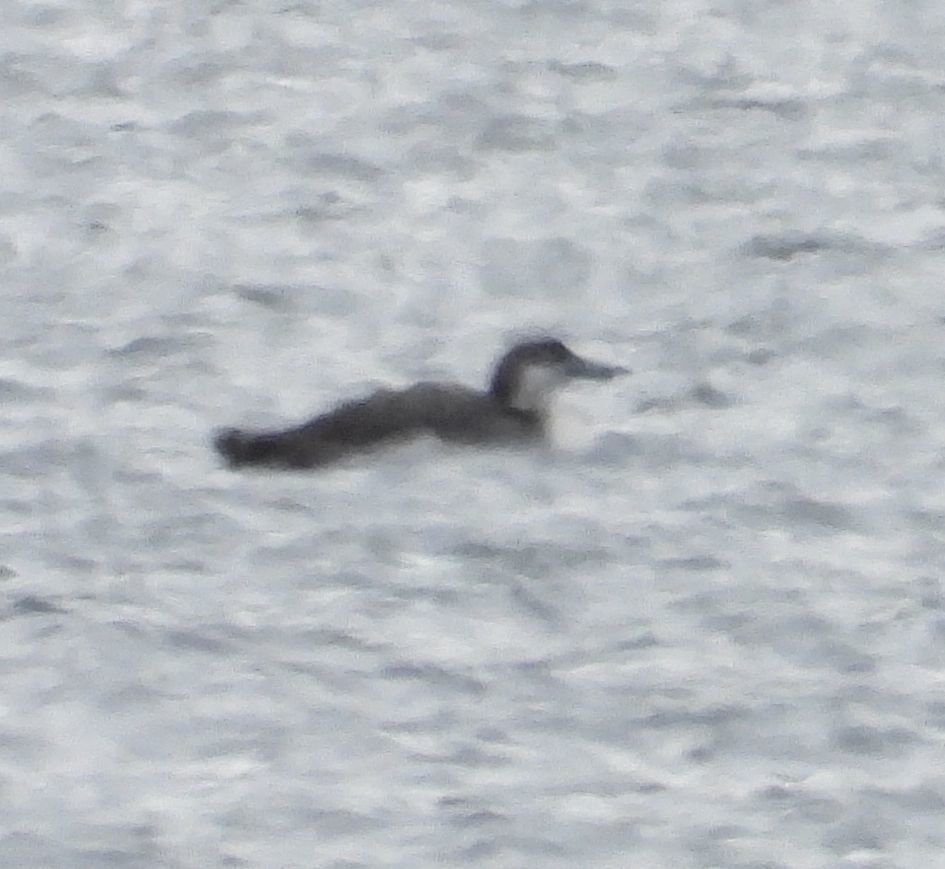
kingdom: Animalia
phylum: Chordata
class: Aves
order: Gaviiformes
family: Gaviidae
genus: Gavia
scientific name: Gavia immer
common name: Common loon
